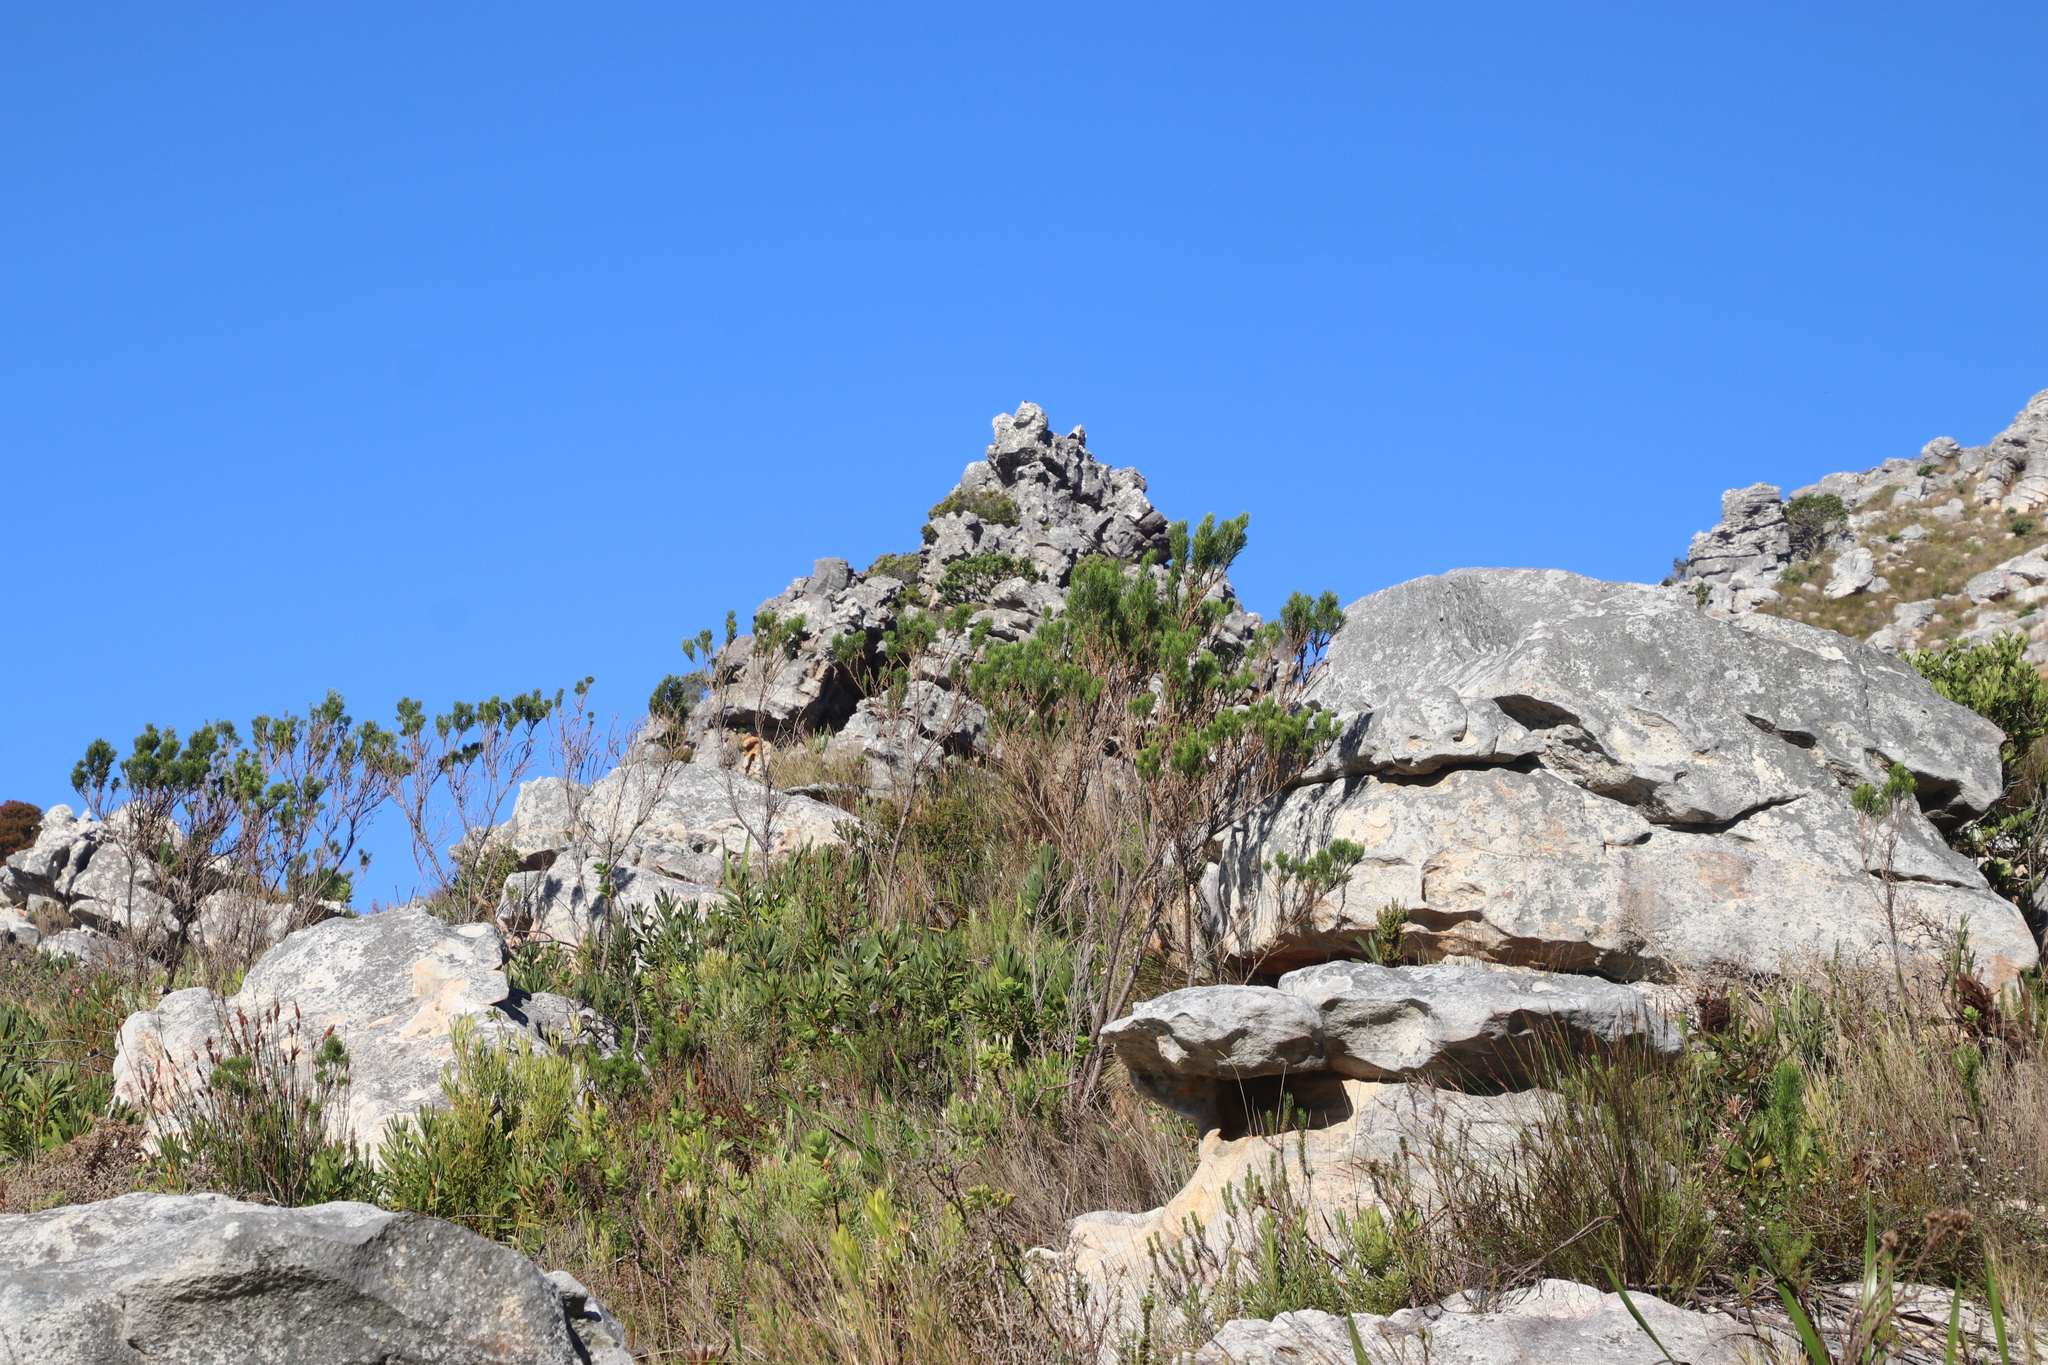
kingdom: Plantae
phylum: Tracheophyta
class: Magnoliopsida
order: Fabales
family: Fabaceae
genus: Psoralea
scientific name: Psoralea pinnata
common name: African scurfpea
